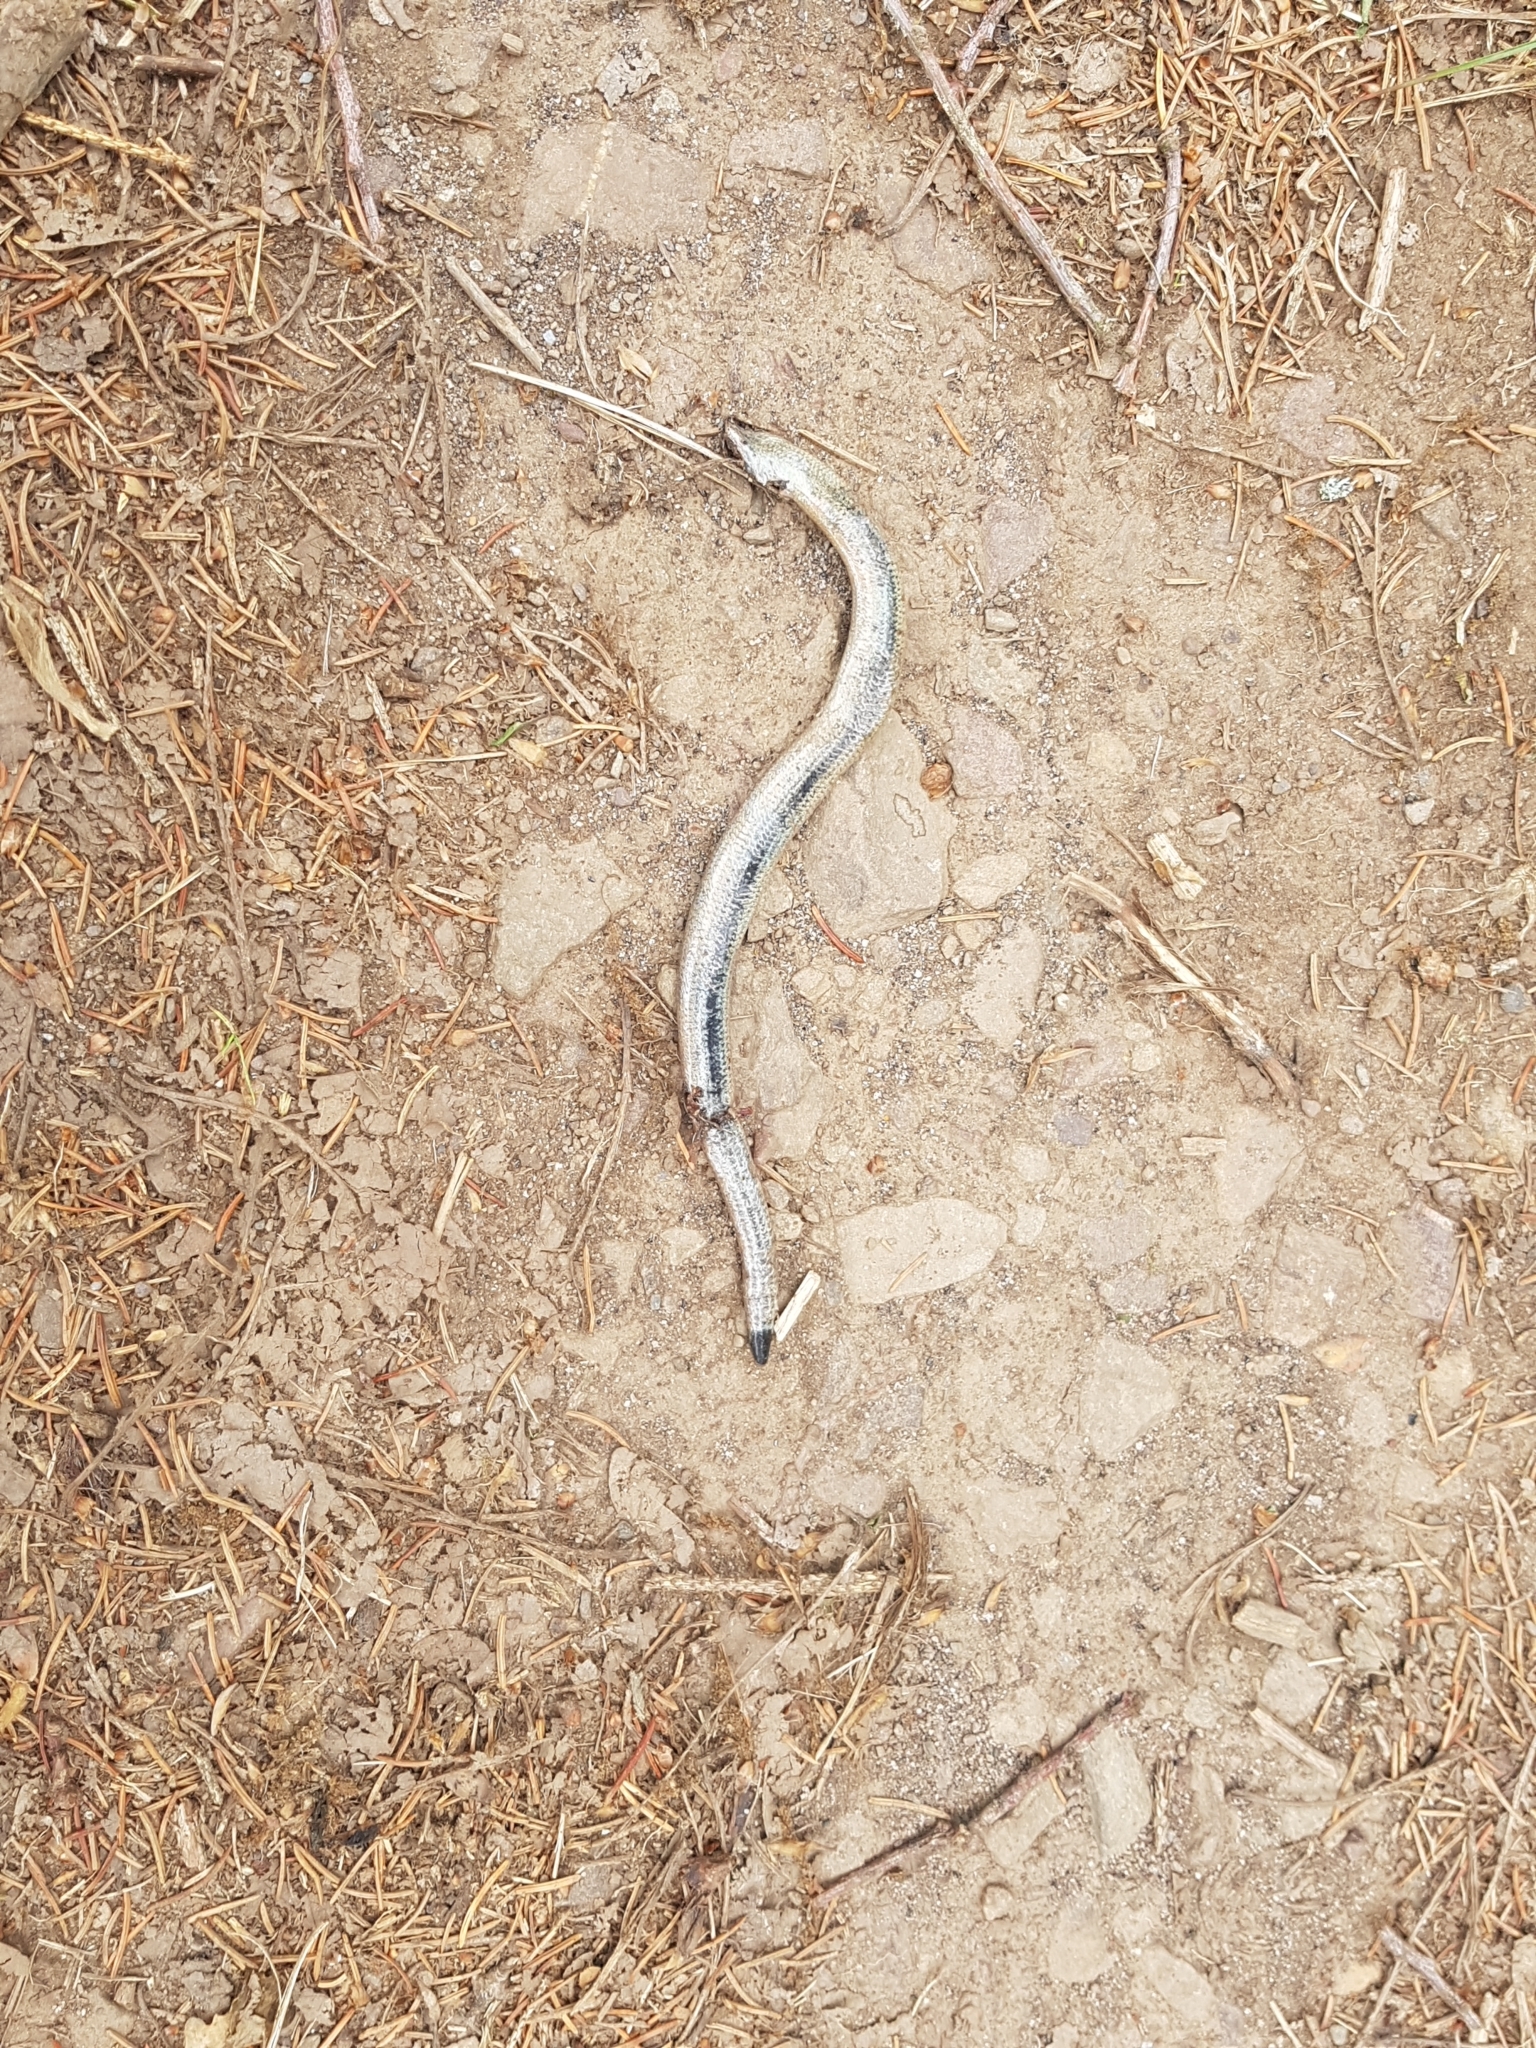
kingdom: Animalia
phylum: Chordata
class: Squamata
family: Anguidae
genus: Anguis
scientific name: Anguis fragilis
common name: Slow worm
